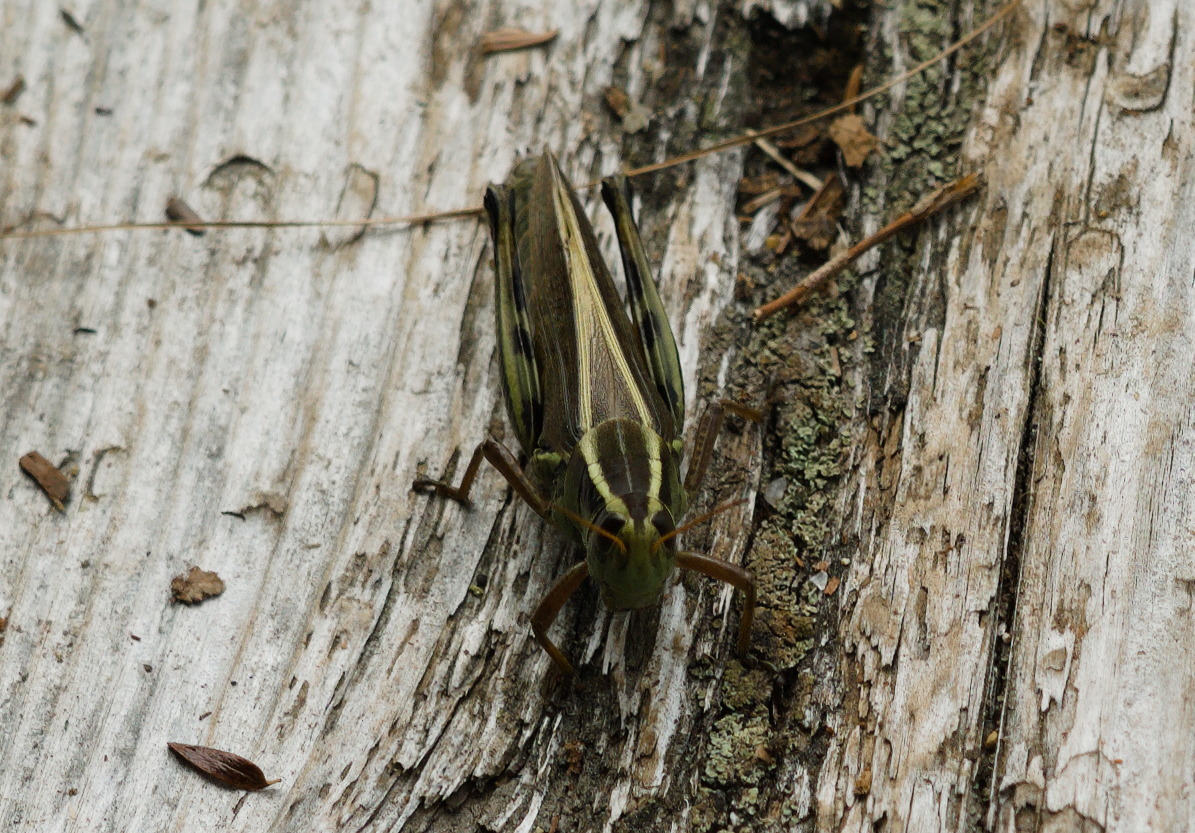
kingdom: Animalia
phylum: Arthropoda
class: Insecta
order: Orthoptera
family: Acrididae
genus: Melanoplus
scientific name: Melanoplus bivittatus
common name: Two-striped grasshopper
